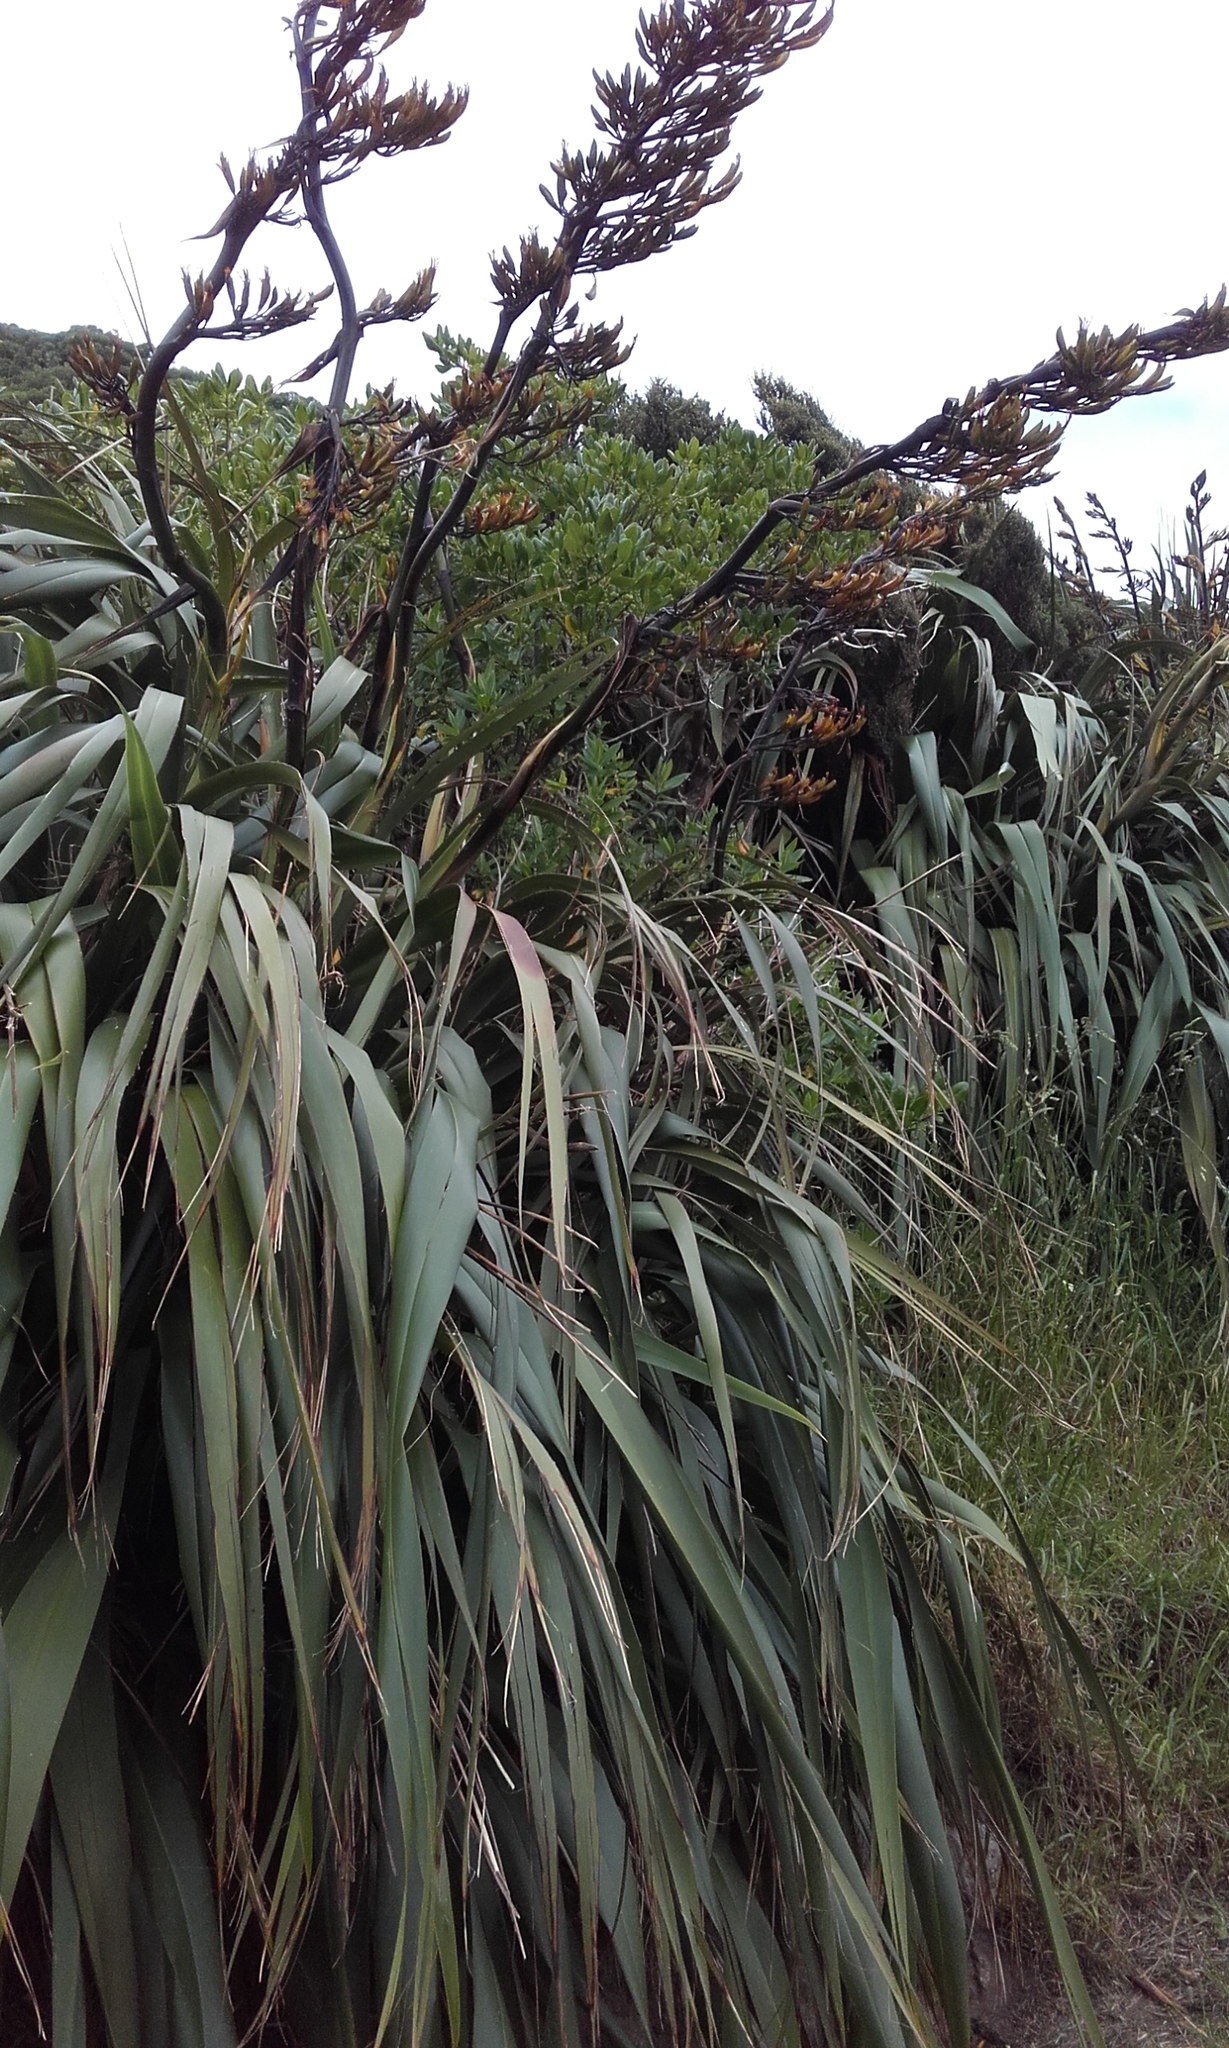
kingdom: Plantae
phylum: Tracheophyta
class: Liliopsida
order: Asparagales
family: Asphodelaceae
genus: Phormium
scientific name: Phormium tenax
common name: New zealand flax
